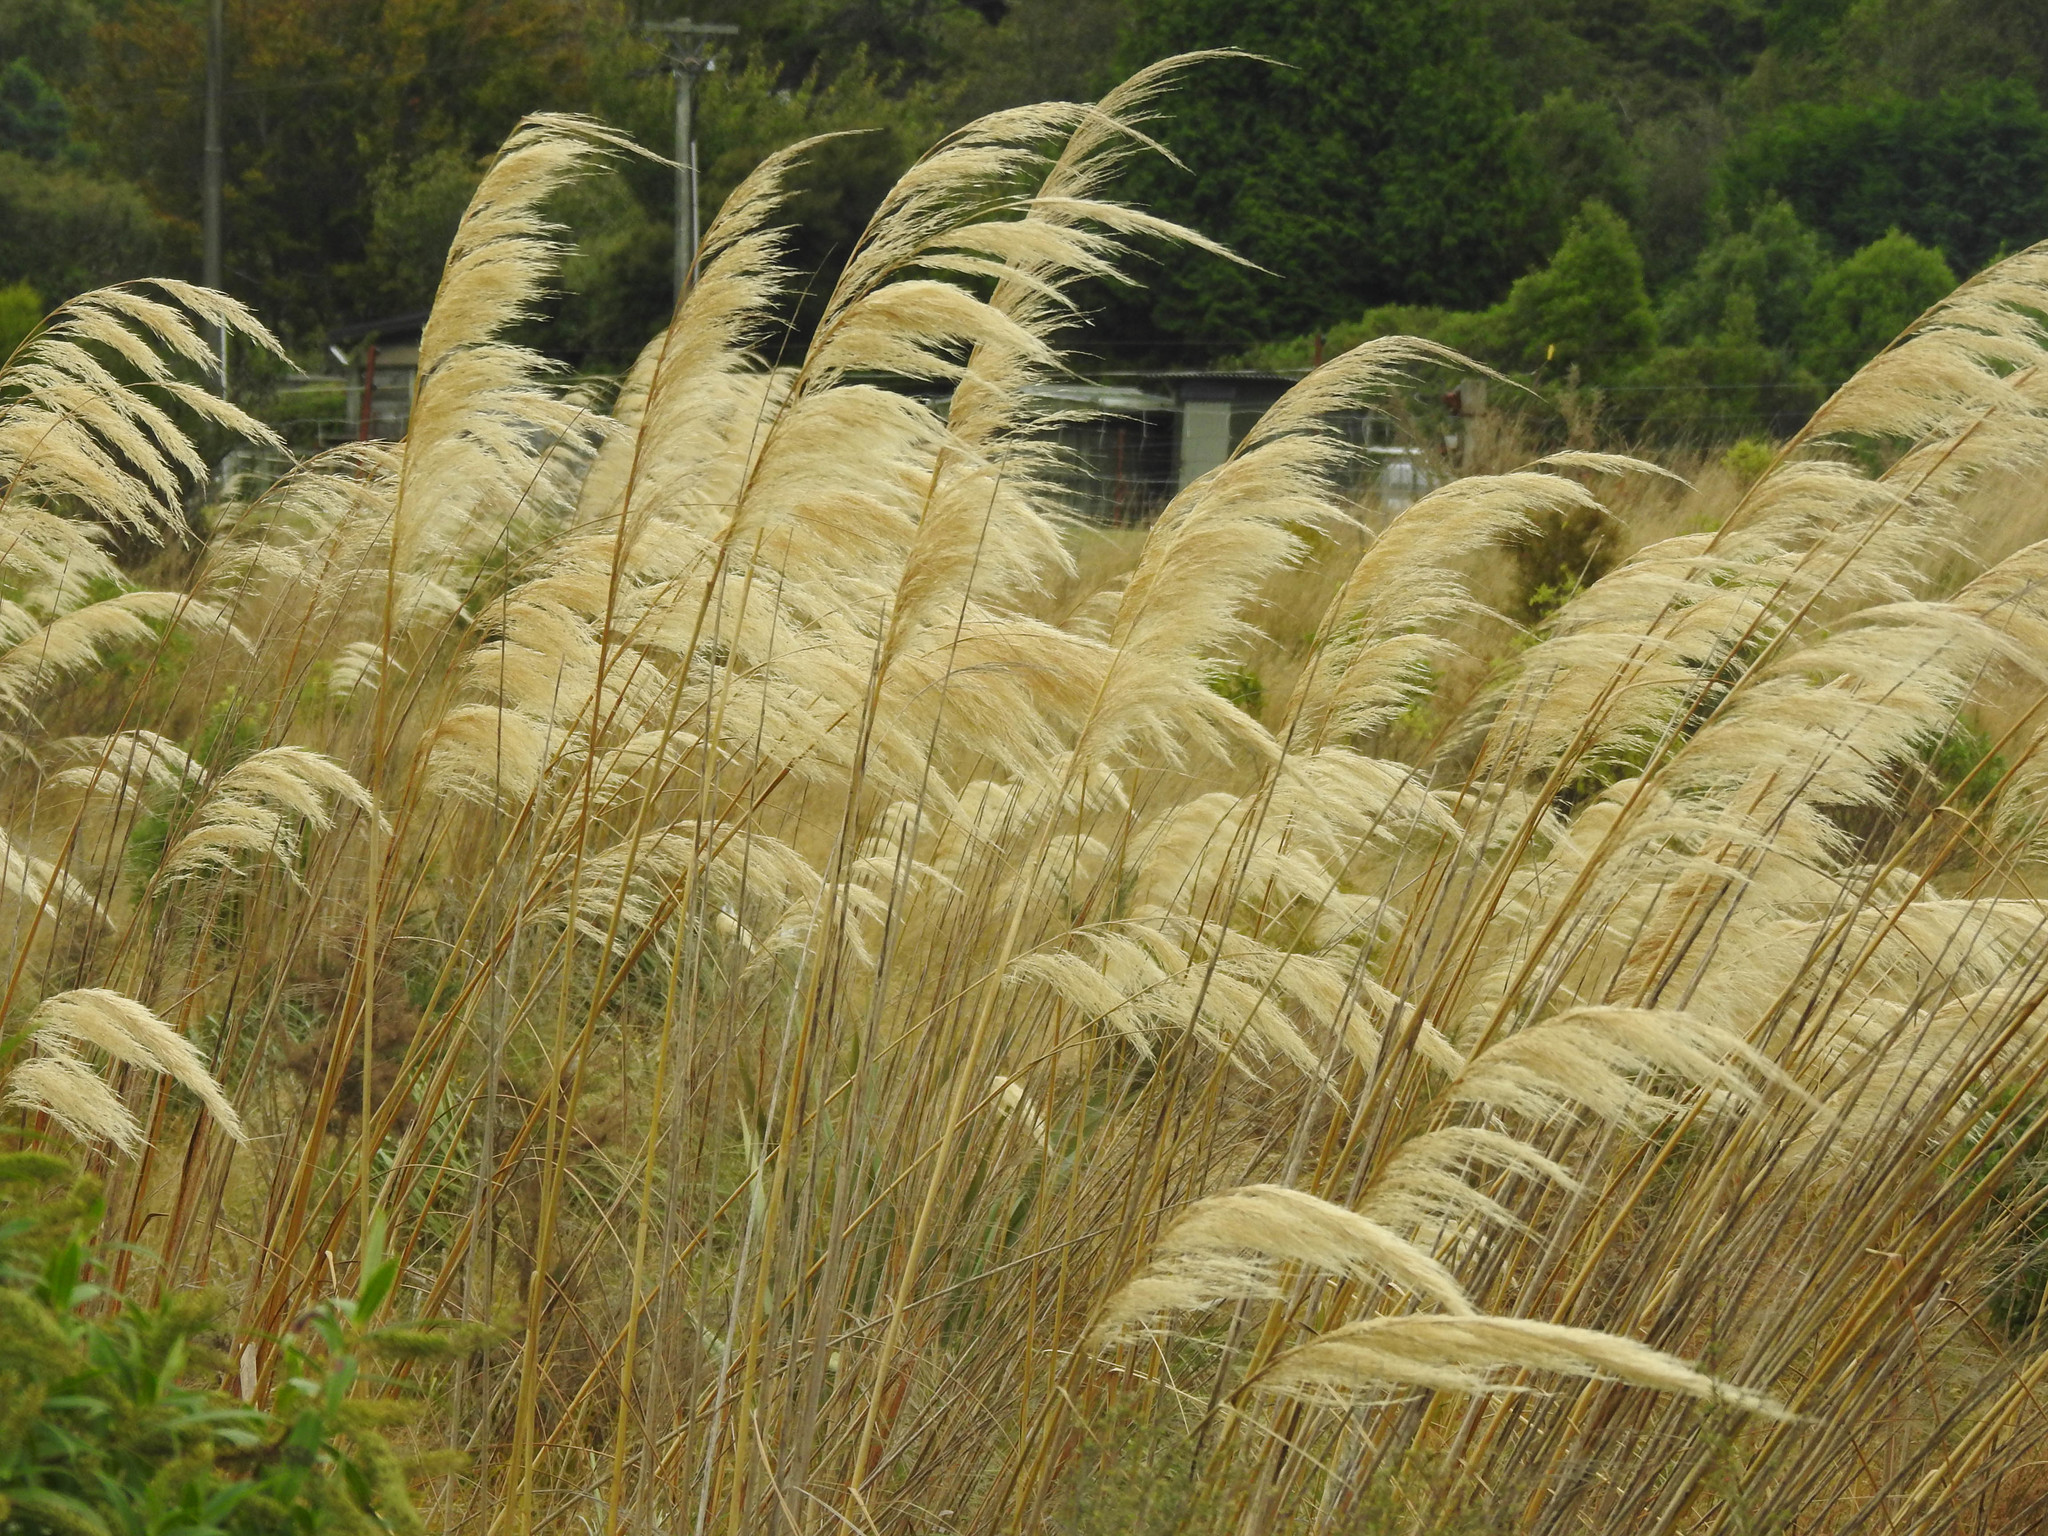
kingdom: Plantae
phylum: Tracheophyta
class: Liliopsida
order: Poales
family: Poaceae
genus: Austroderia
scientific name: Austroderia richardii
